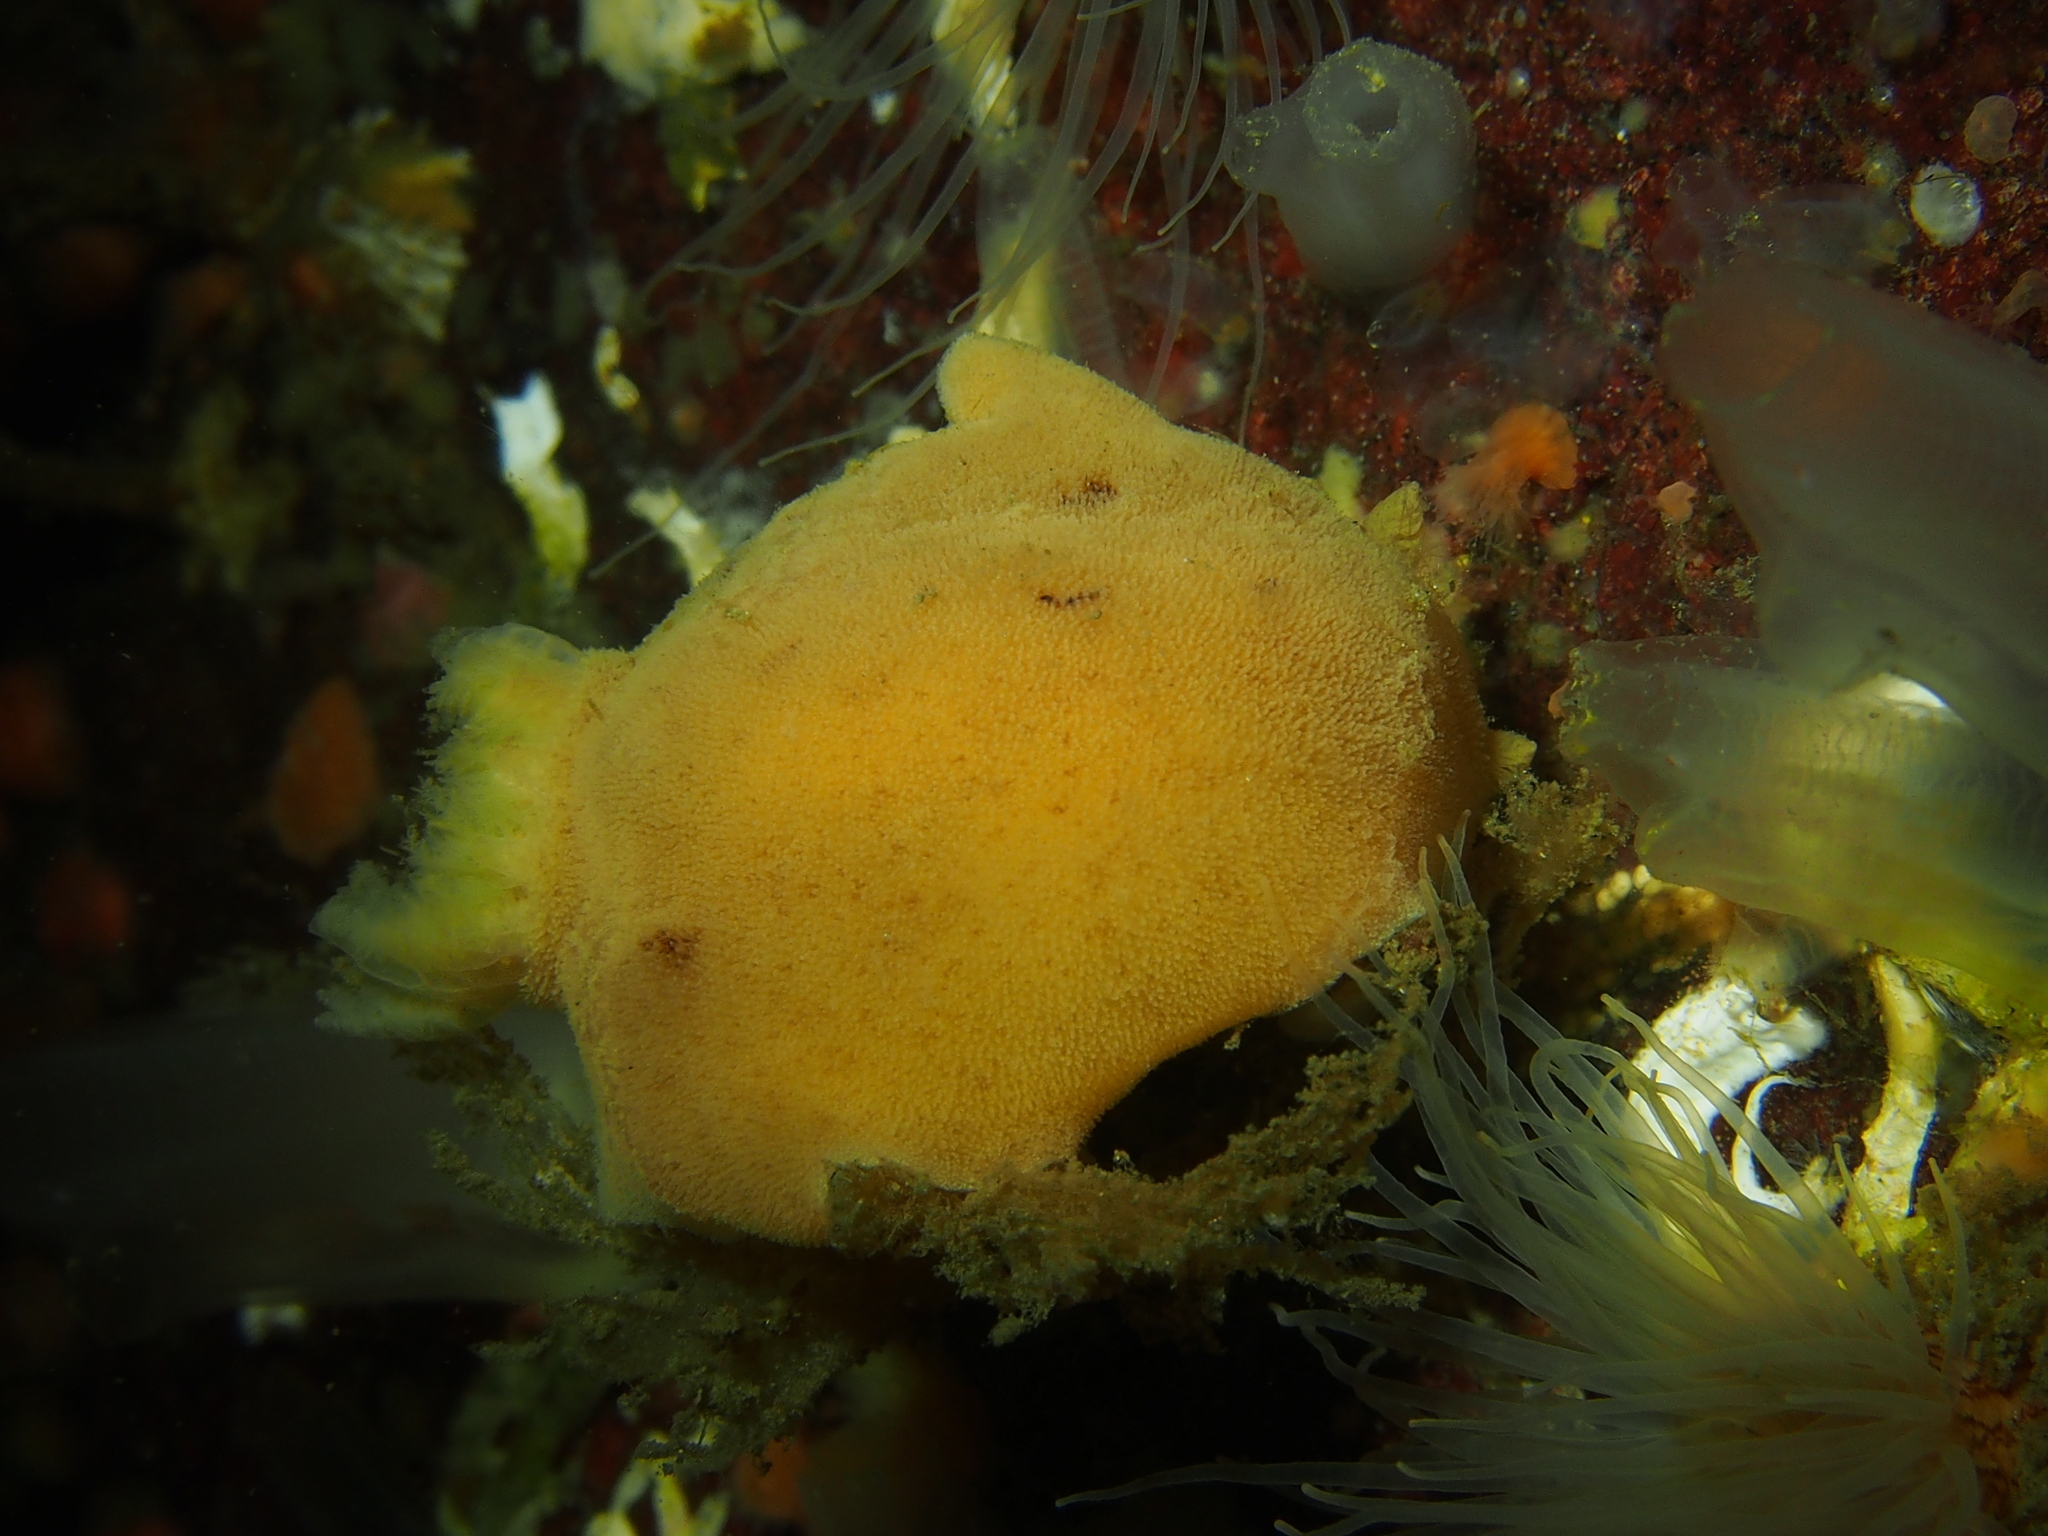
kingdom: Animalia
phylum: Mollusca
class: Gastropoda
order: Nudibranchia
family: Discodorididae
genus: Jorunna
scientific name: Jorunna tomentosa
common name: Grey sea slug
